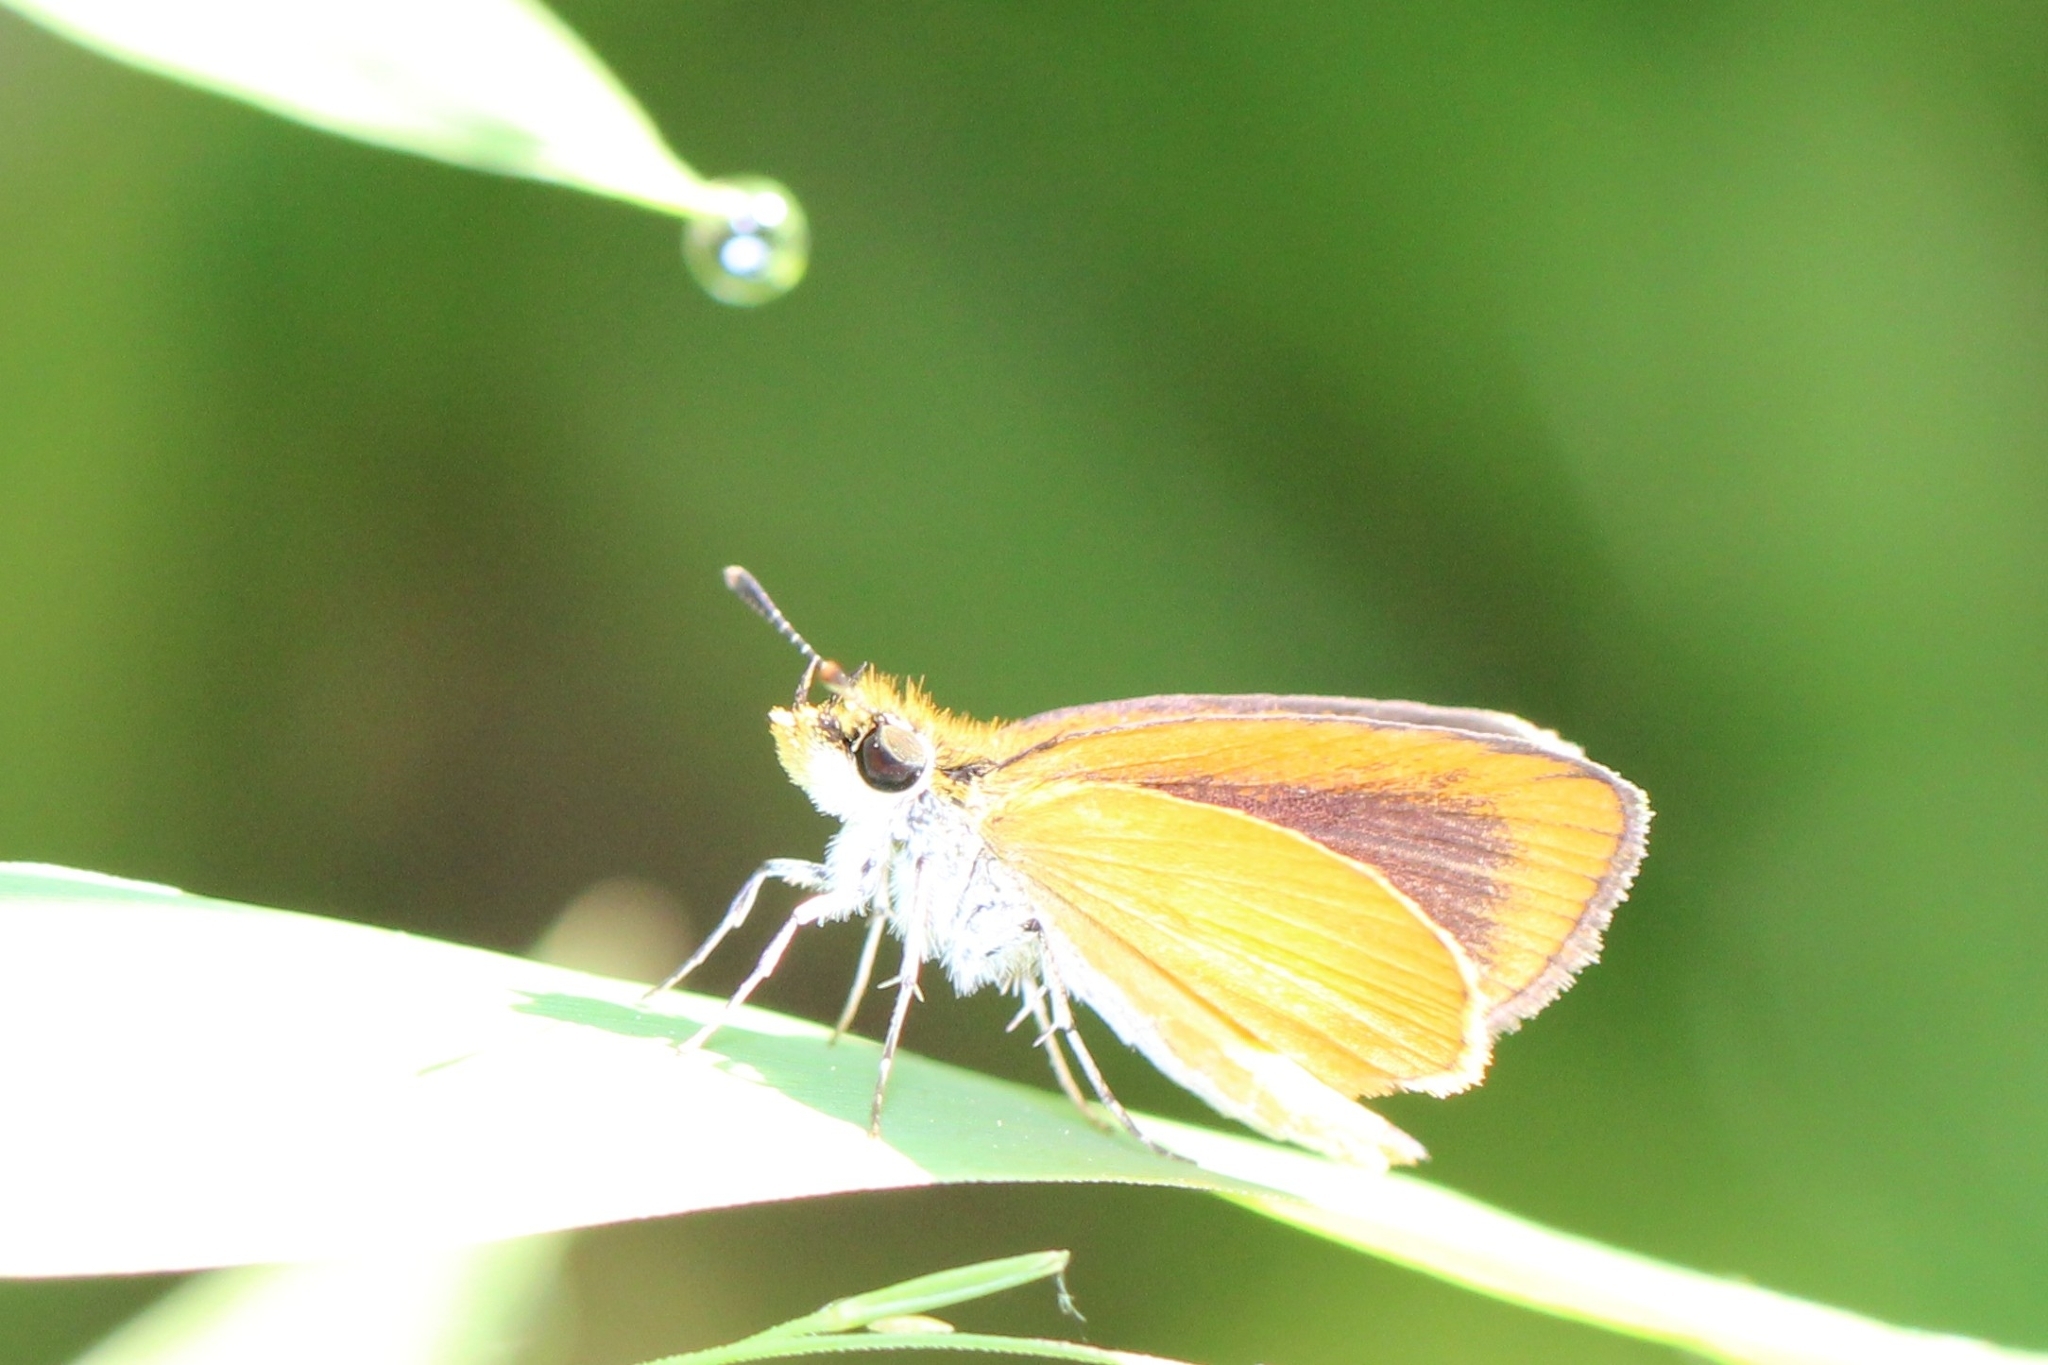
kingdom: Animalia
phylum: Arthropoda
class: Insecta
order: Lepidoptera
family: Hesperiidae
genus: Ancyloxypha
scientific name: Ancyloxypha numitor
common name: Least skipper
